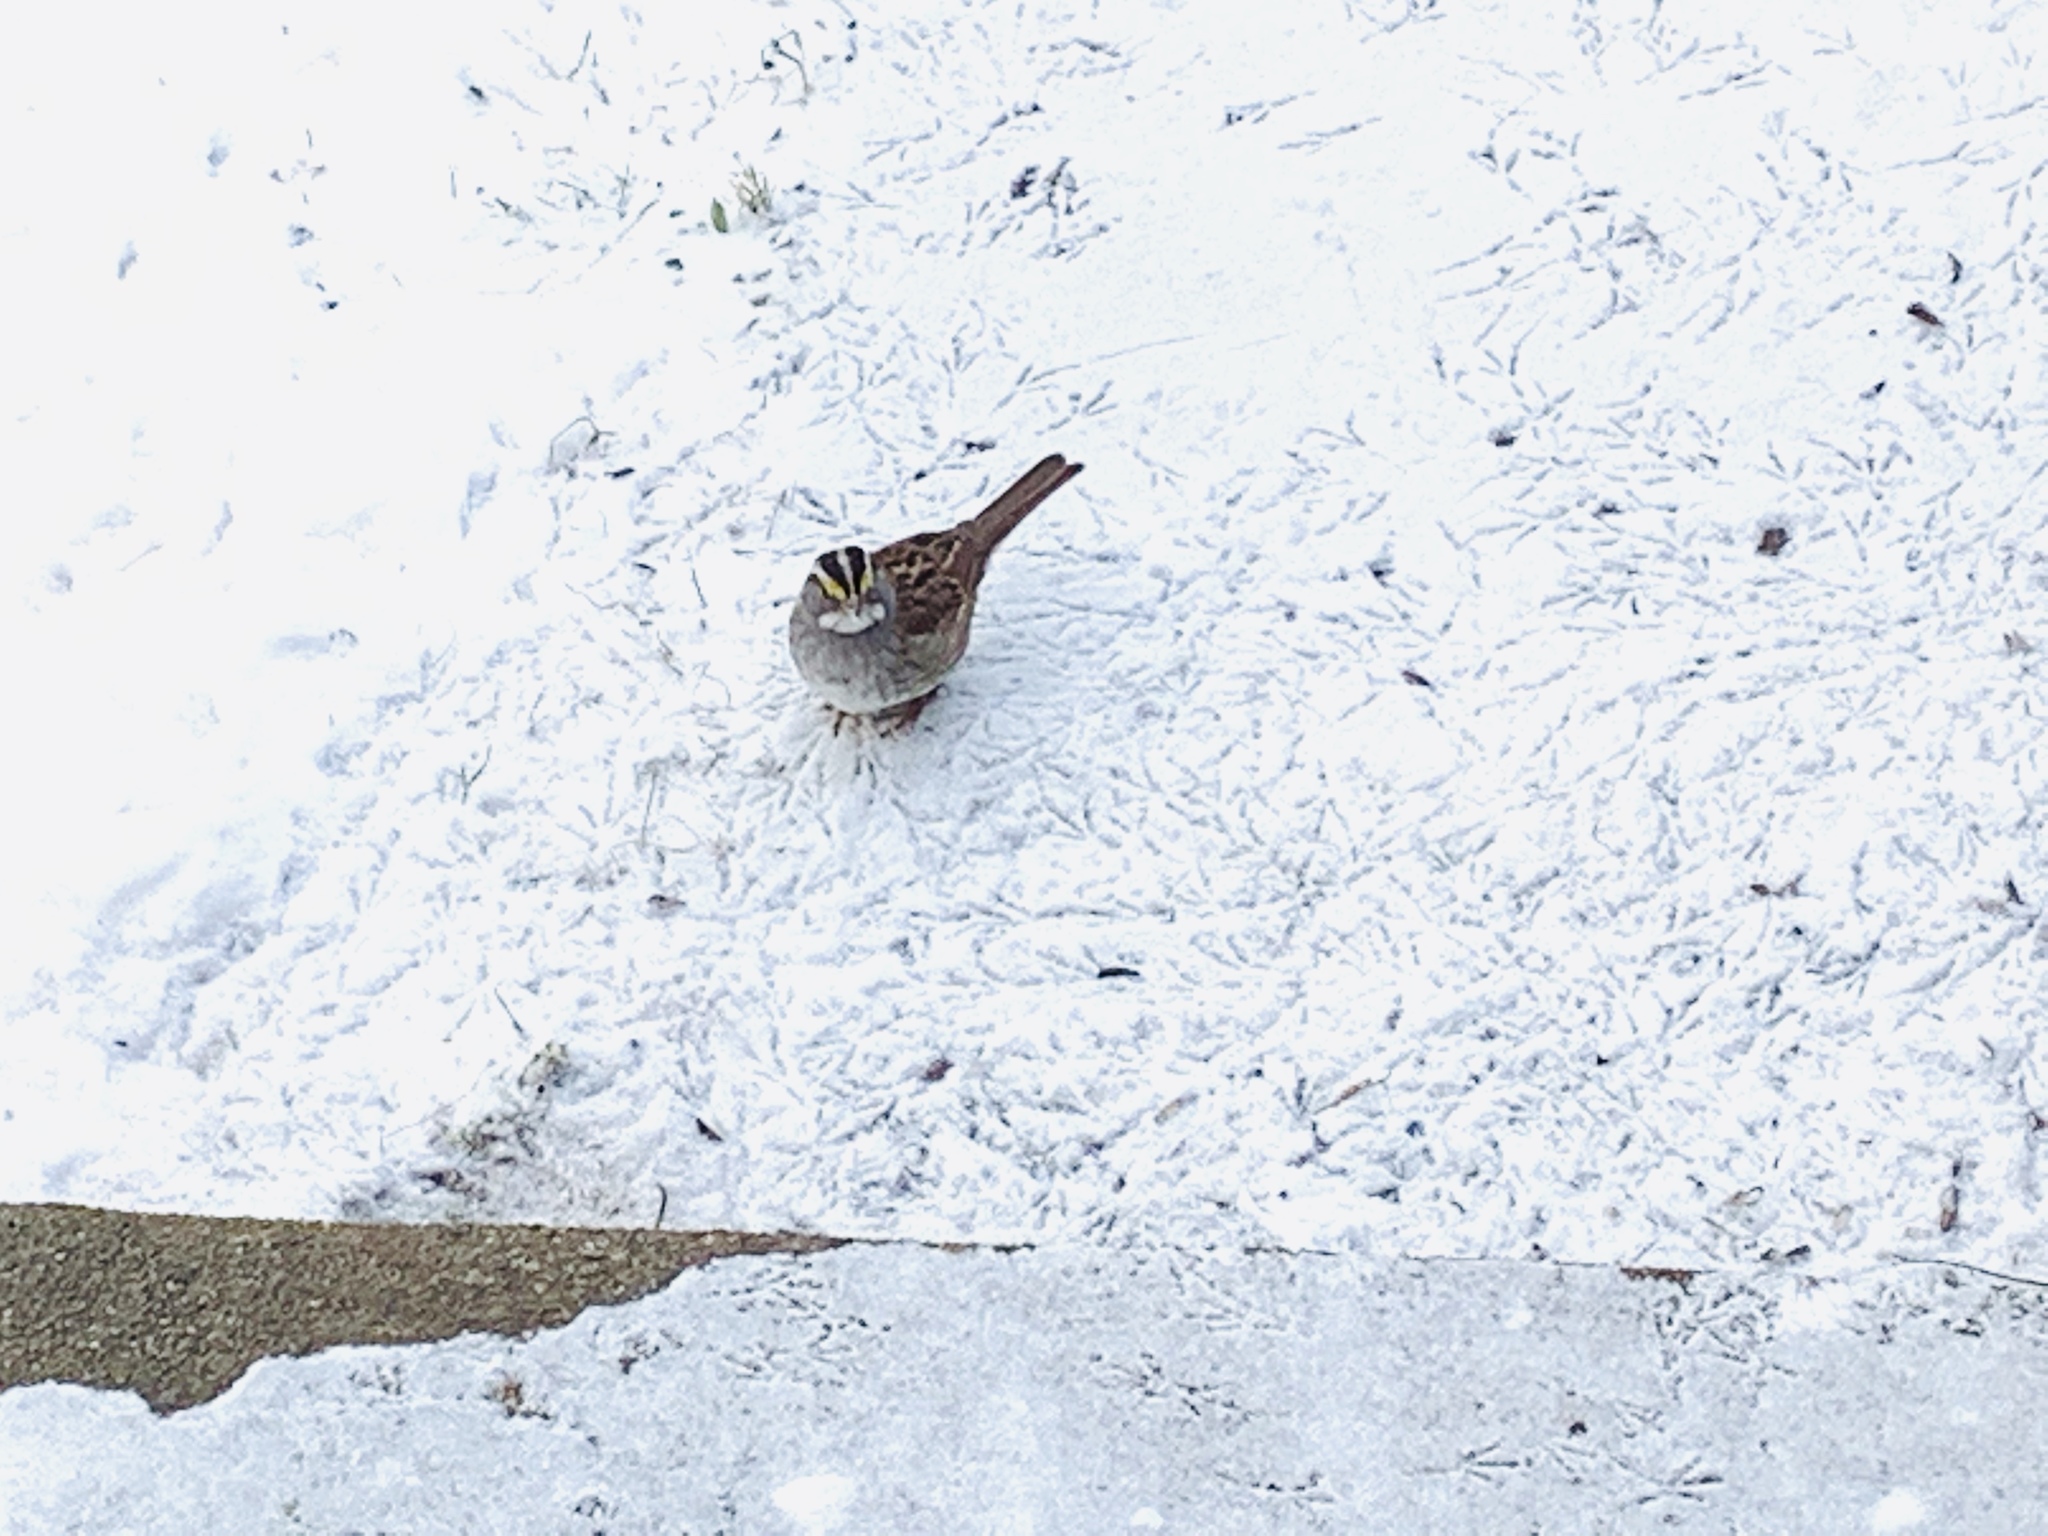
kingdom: Animalia
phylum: Chordata
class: Aves
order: Passeriformes
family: Passerellidae
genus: Zonotrichia
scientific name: Zonotrichia albicollis
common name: White-throated sparrow
